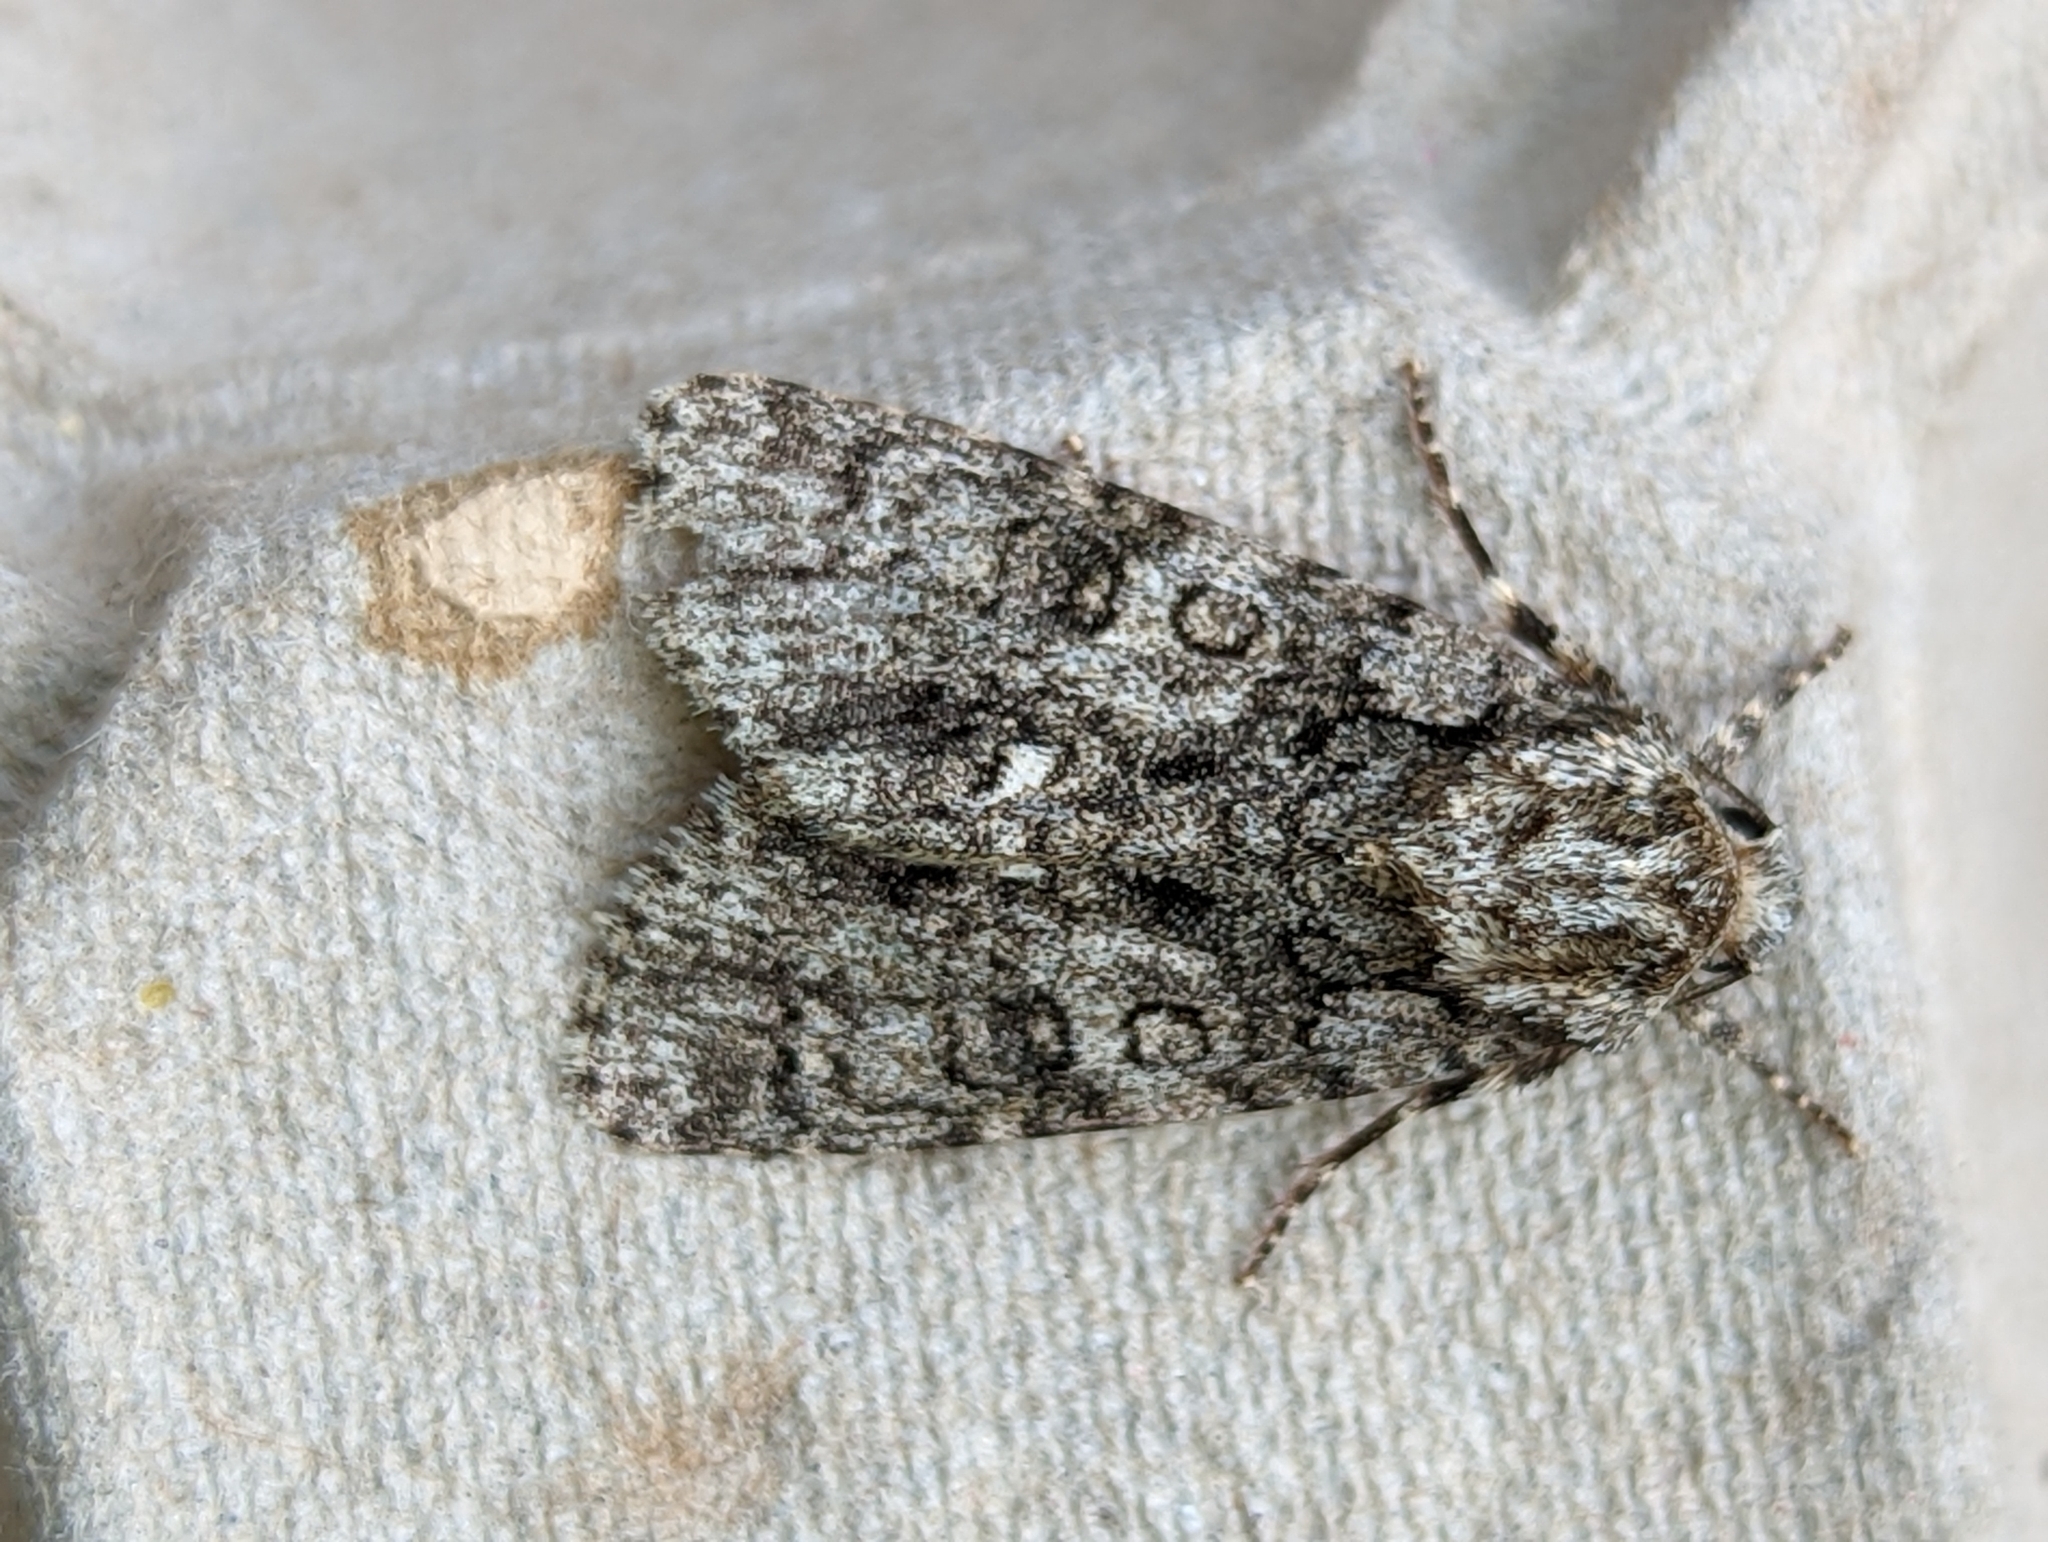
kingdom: Animalia
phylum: Arthropoda
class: Insecta
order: Lepidoptera
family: Noctuidae
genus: Acronicta
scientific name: Acronicta rumicis
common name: Knot grass
